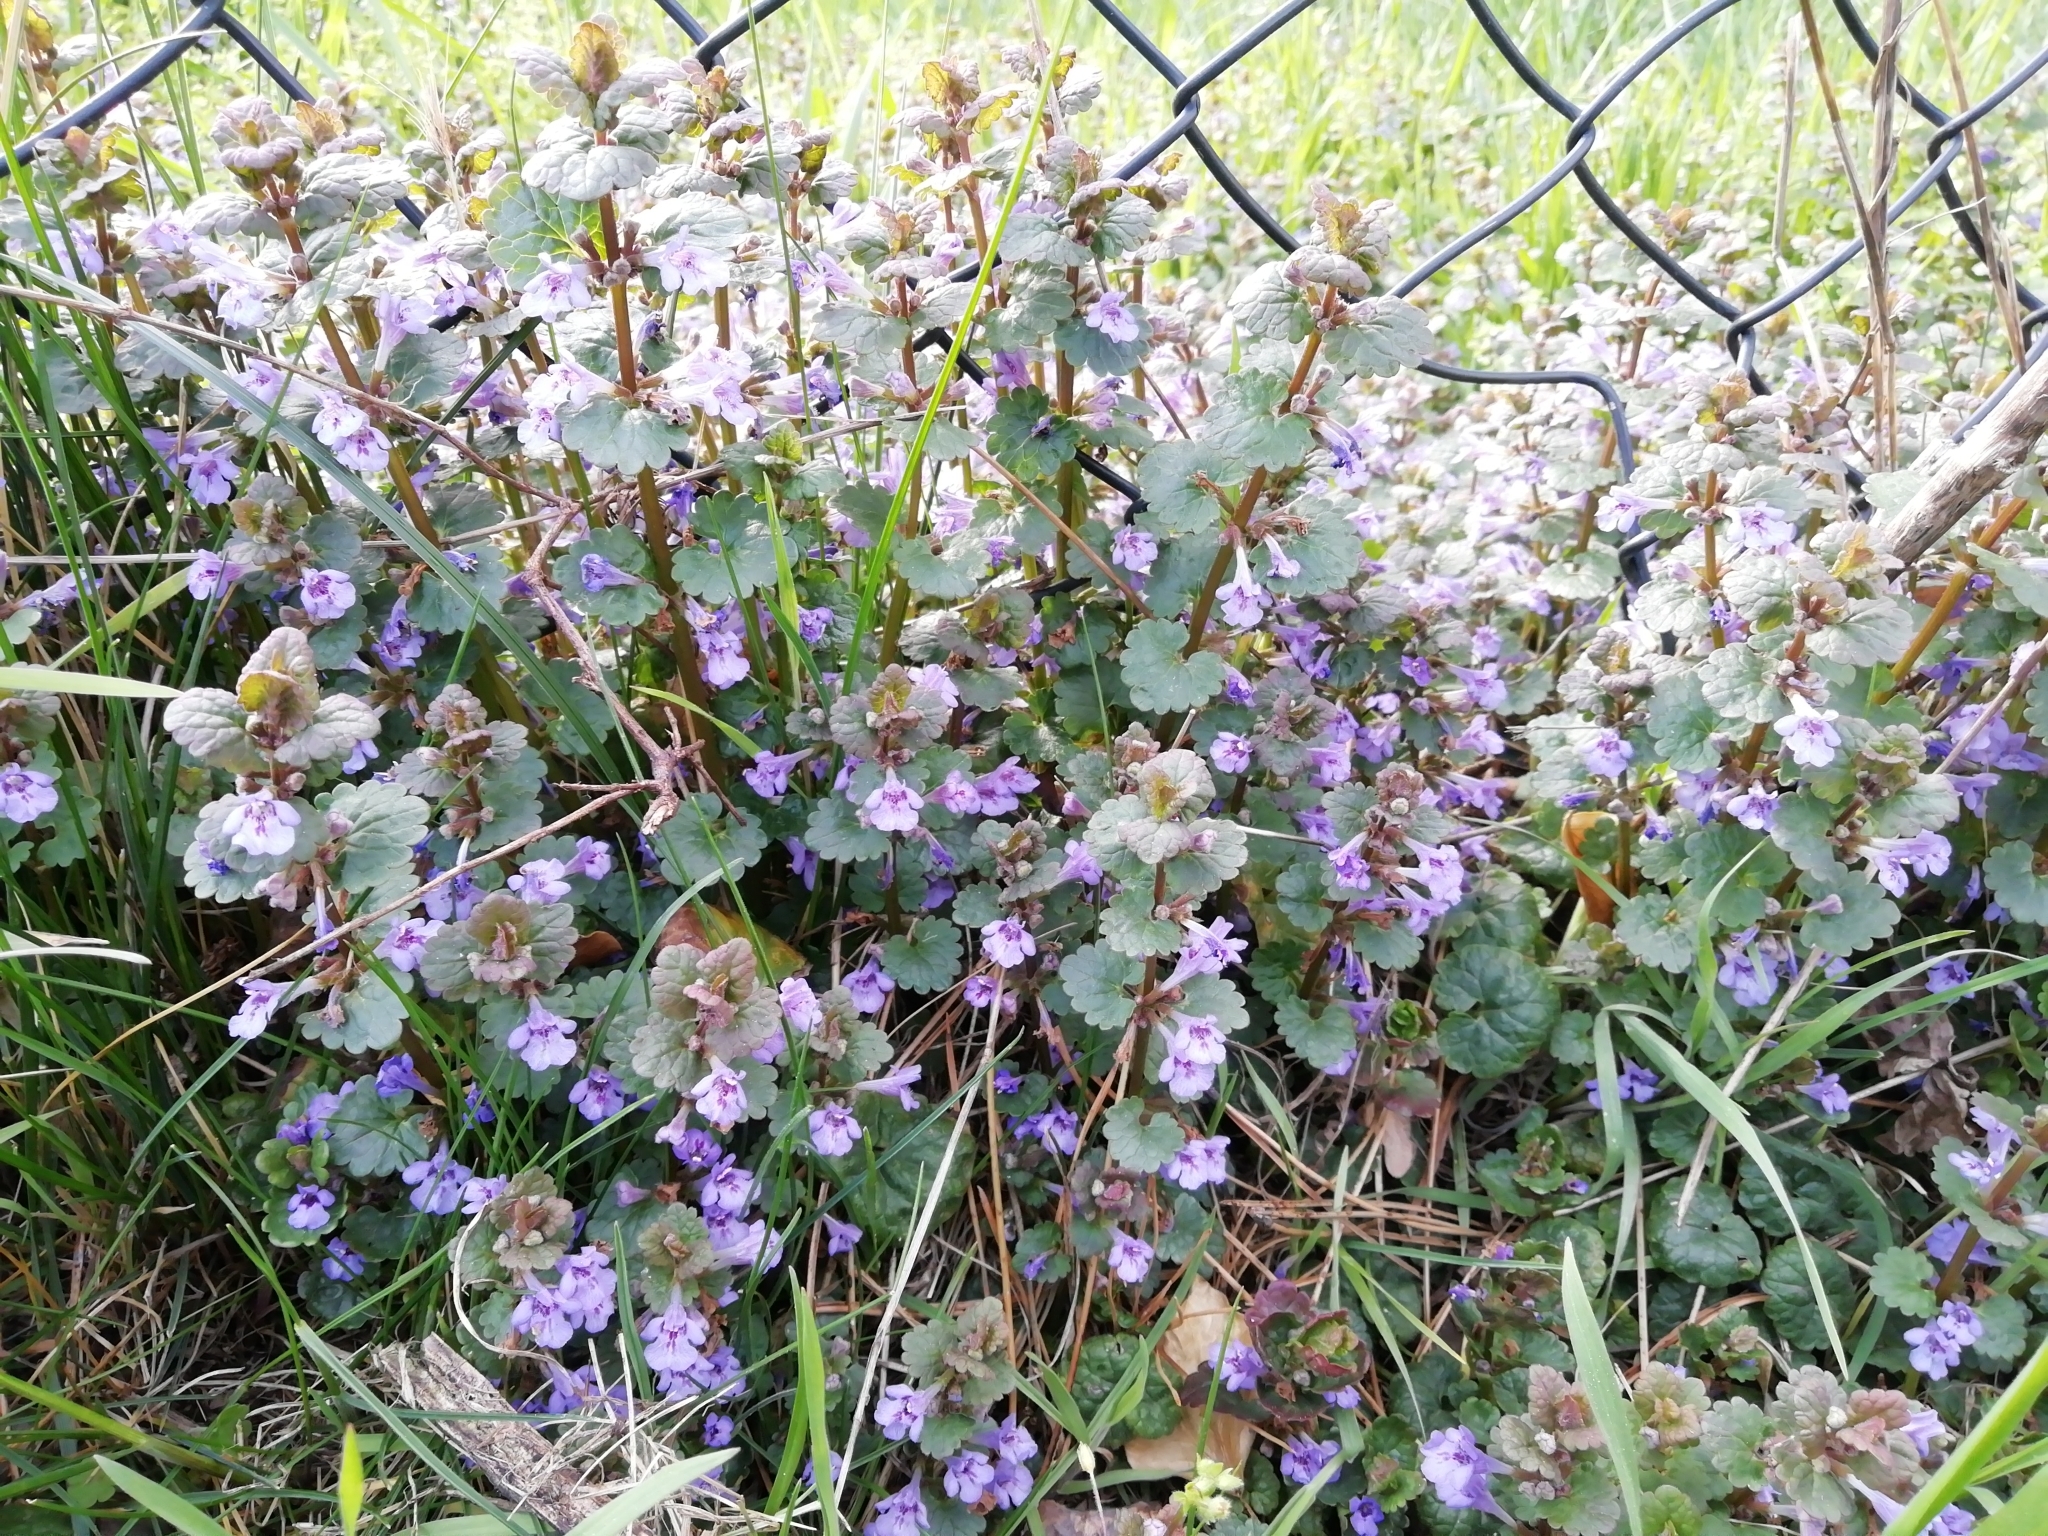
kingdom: Plantae
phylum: Tracheophyta
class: Magnoliopsida
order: Lamiales
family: Lamiaceae
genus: Glechoma
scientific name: Glechoma hederacea
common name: Ground ivy
